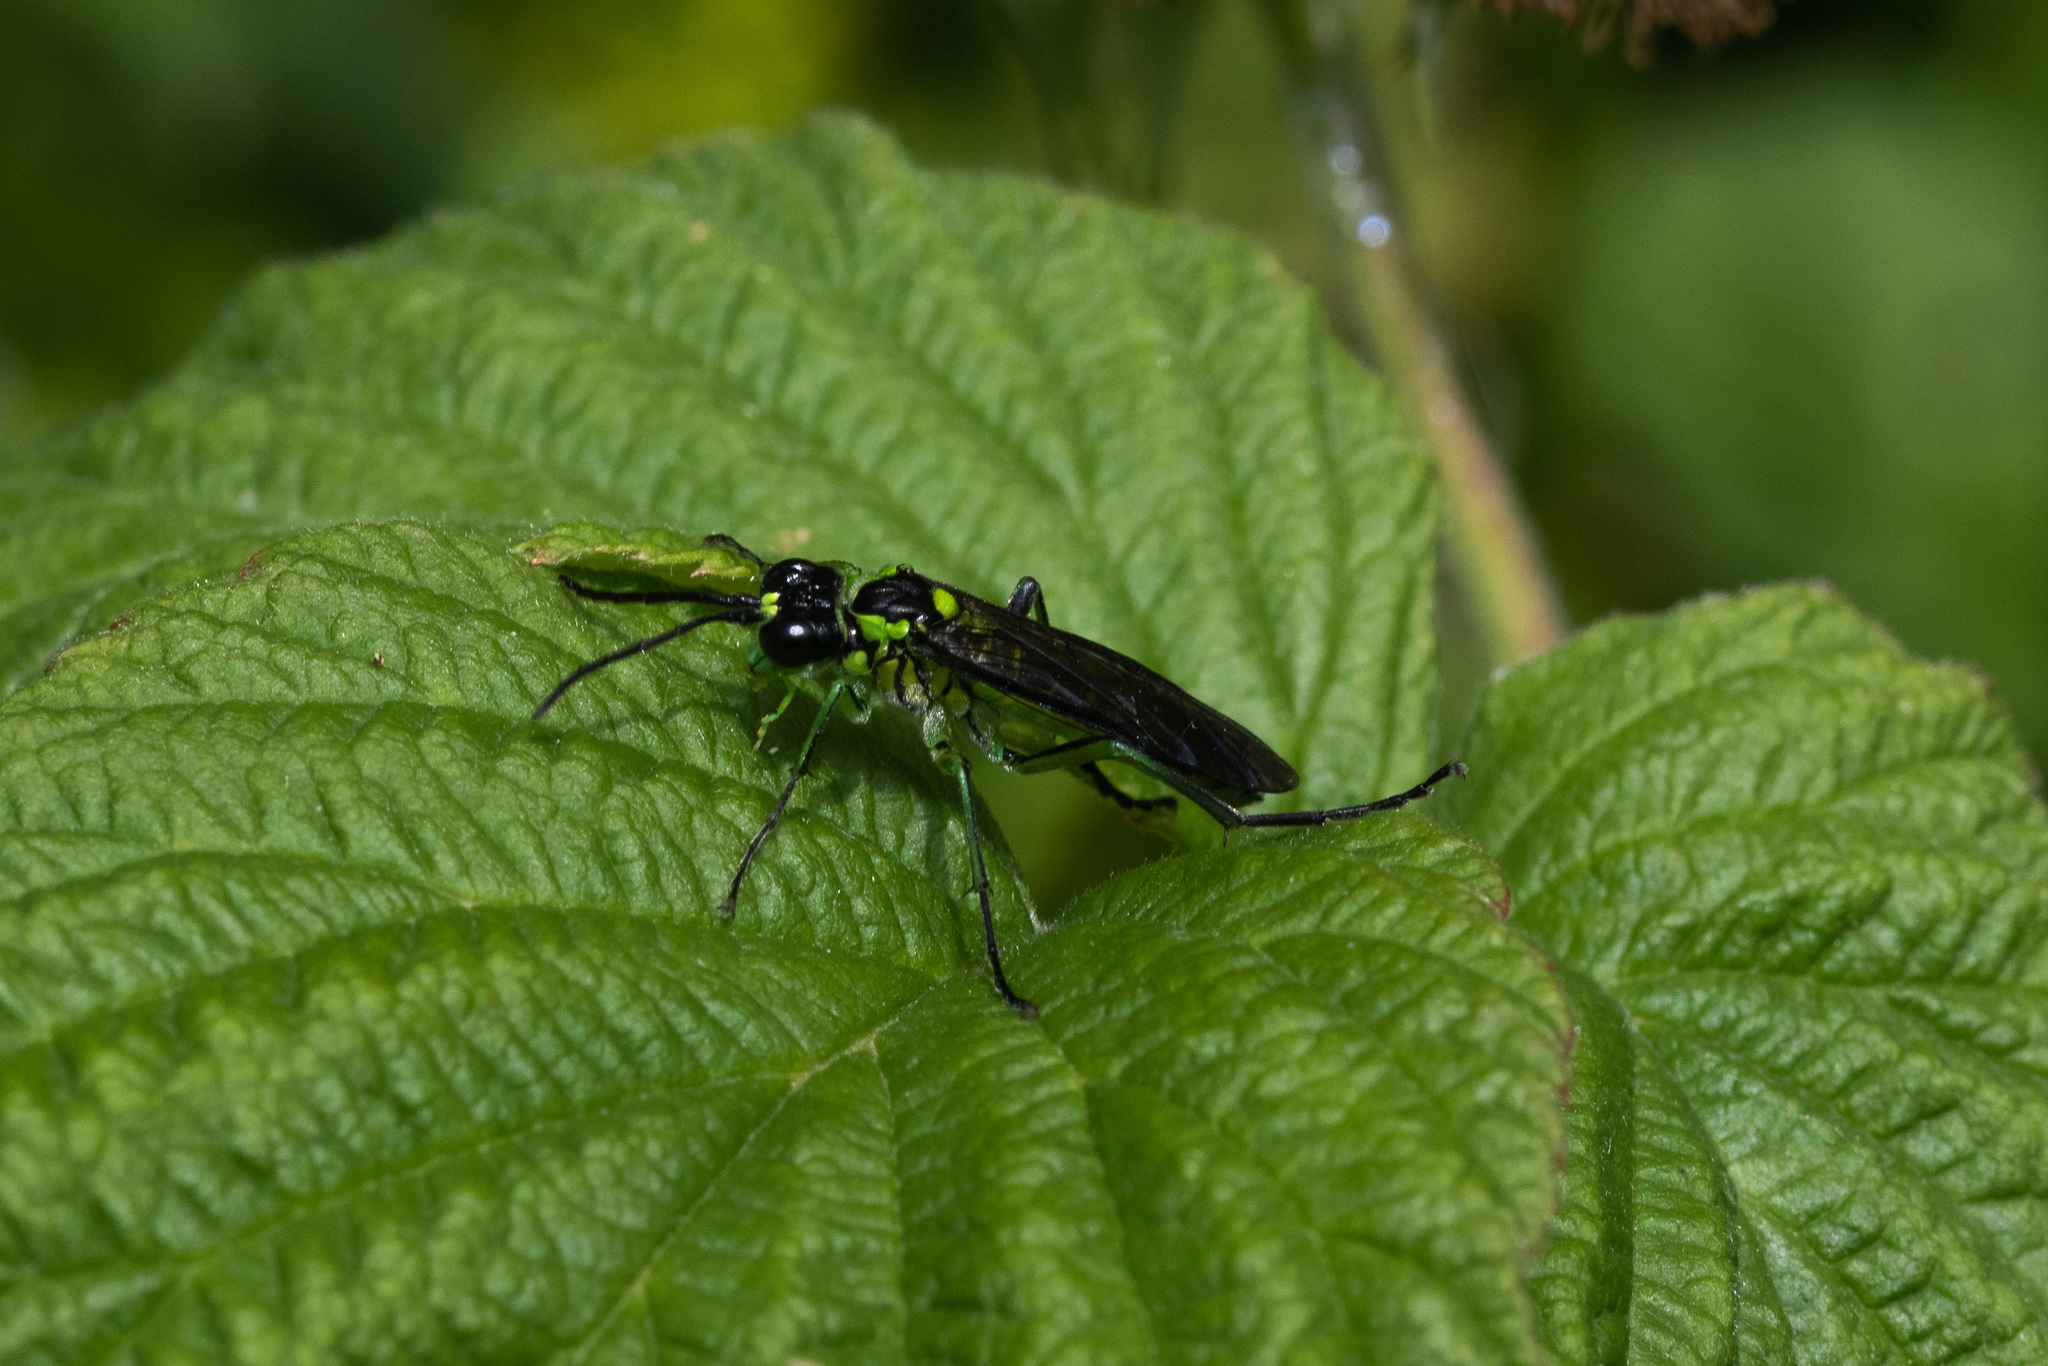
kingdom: Animalia
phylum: Arthropoda
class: Insecta
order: Hymenoptera
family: Tenthredinidae
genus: Tenthredo
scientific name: Tenthredo mesomela
